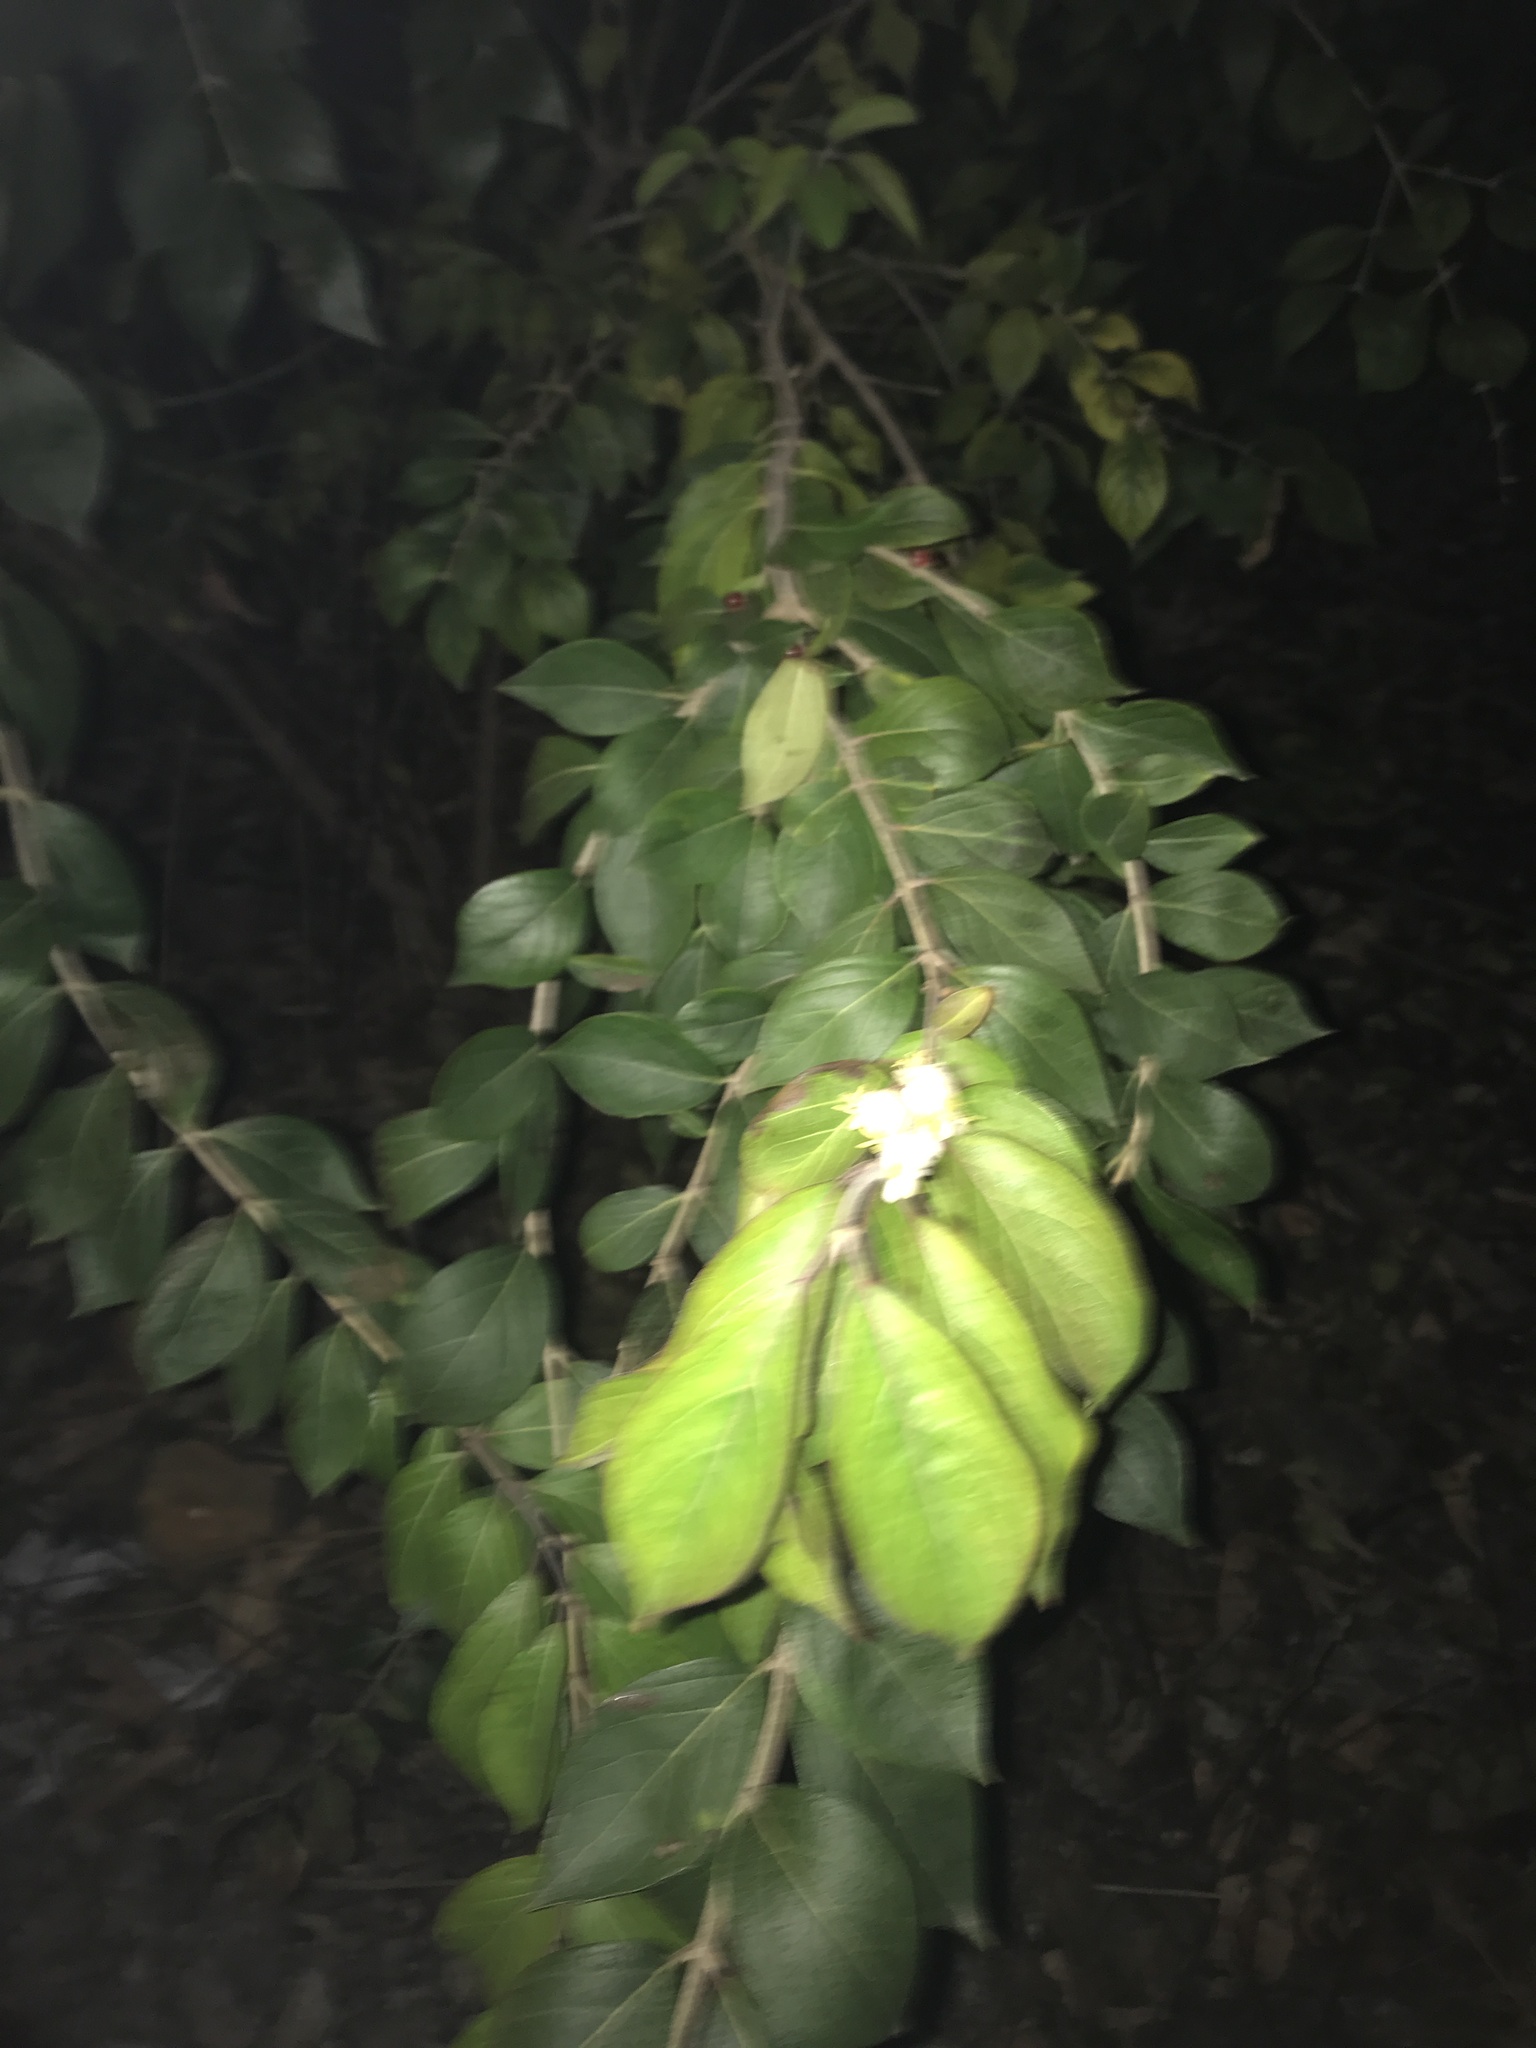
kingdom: Plantae
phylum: Tracheophyta
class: Magnoliopsida
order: Dipsacales
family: Caprifoliaceae
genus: Lonicera
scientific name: Lonicera maackii
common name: Amur honeysuckle
